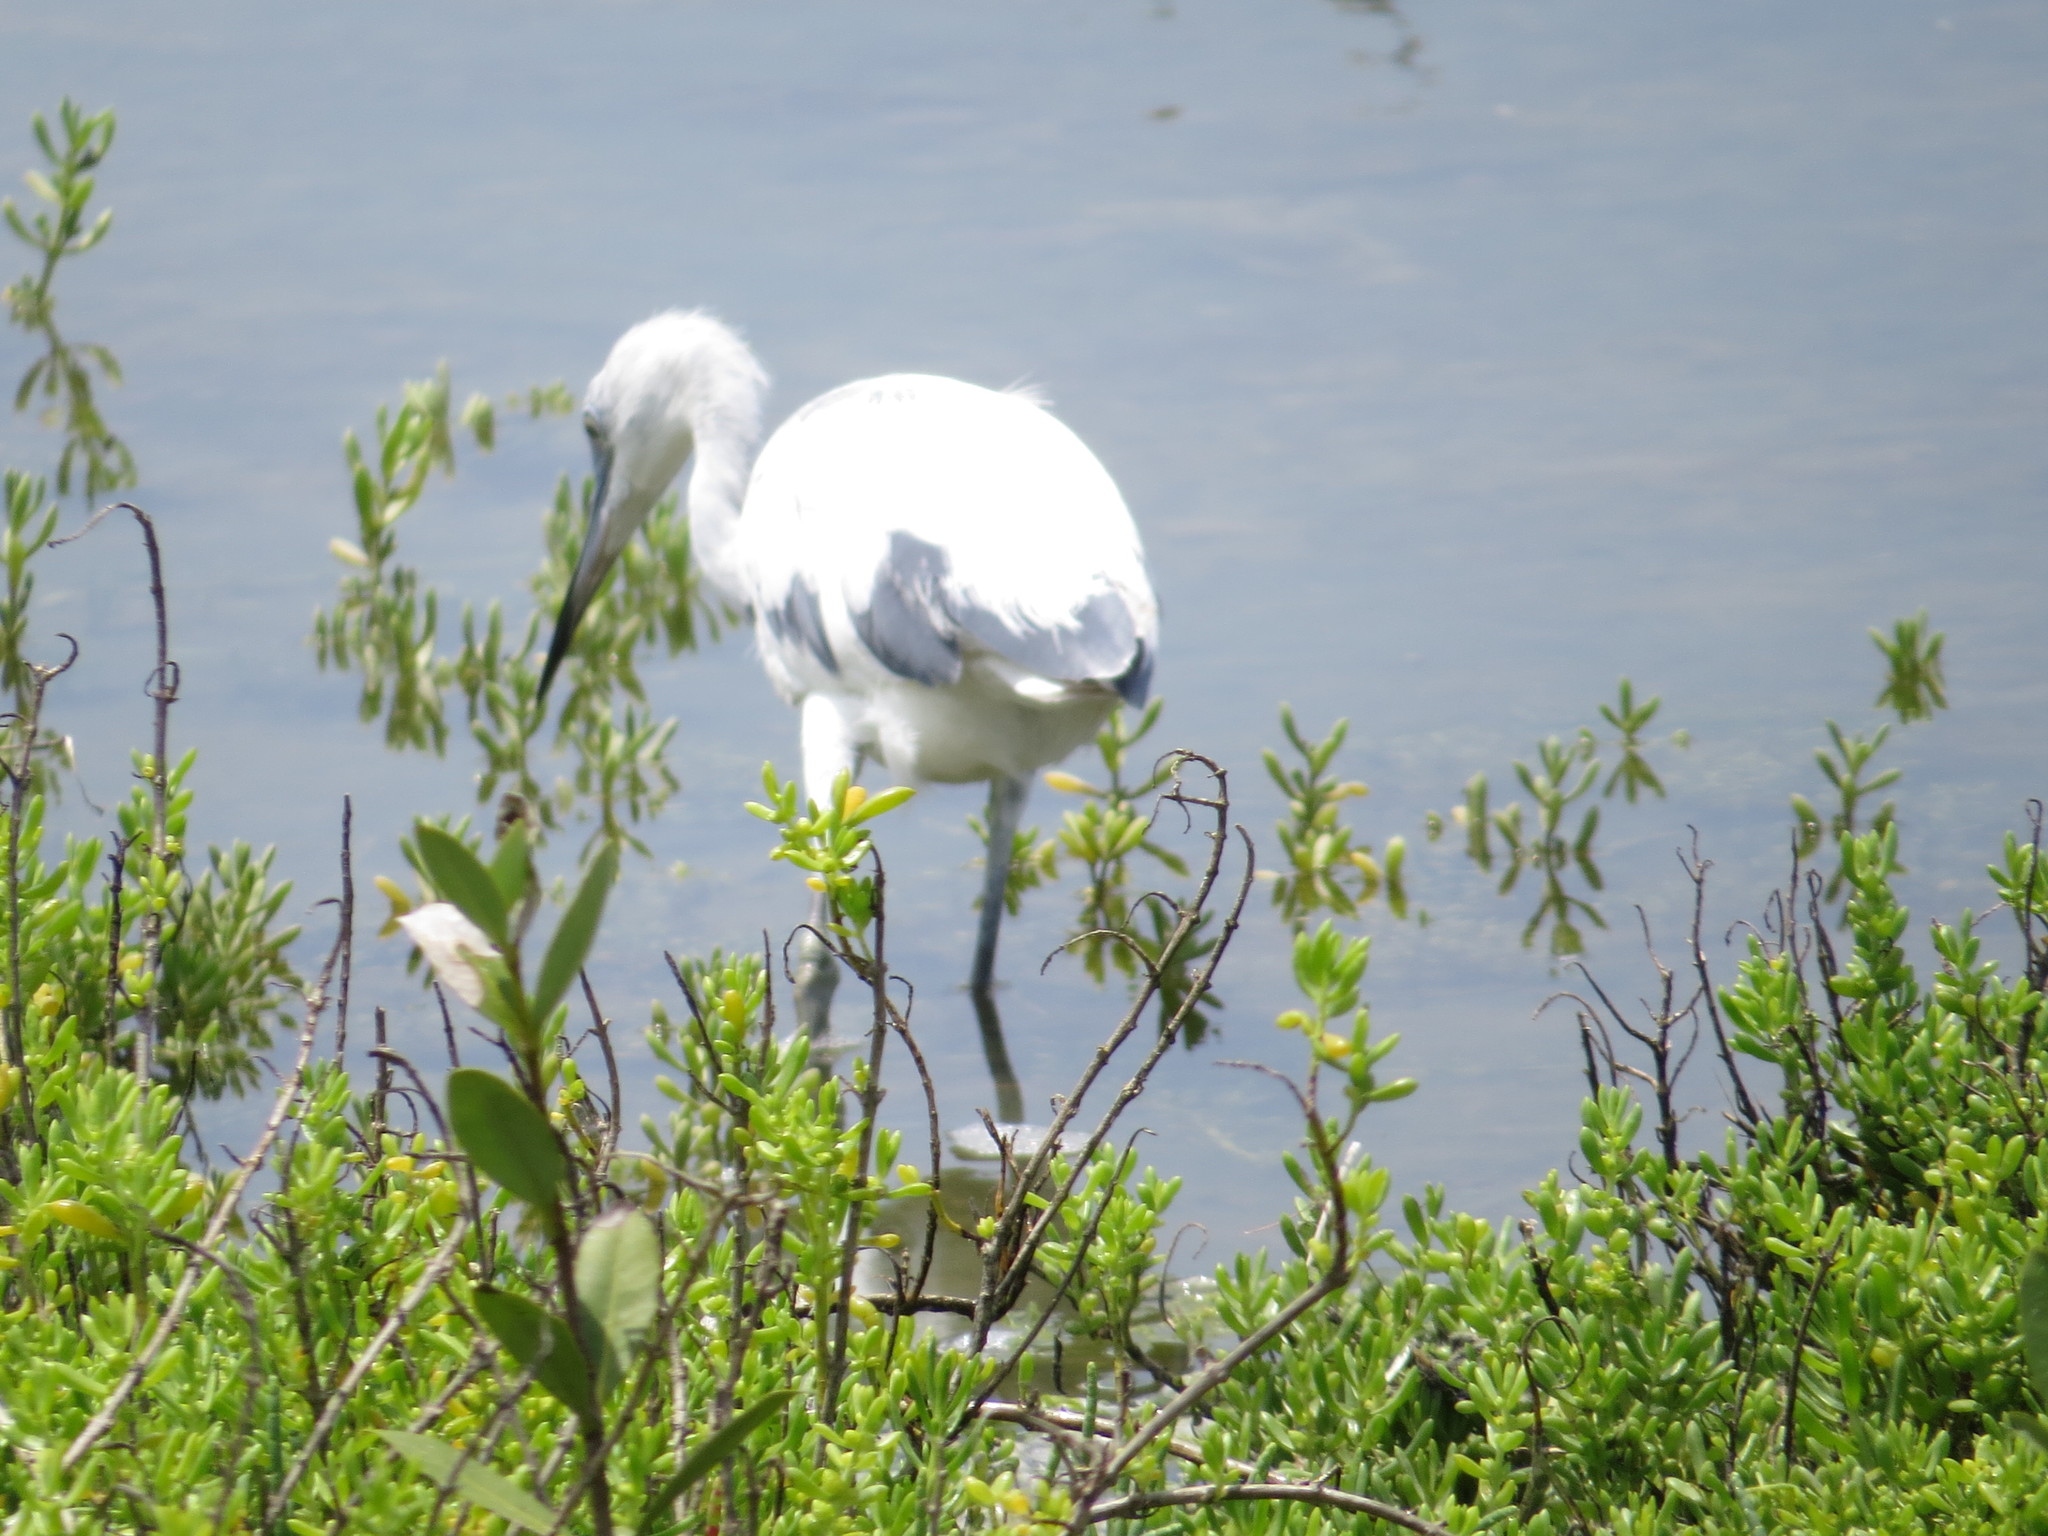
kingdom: Animalia
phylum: Chordata
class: Aves
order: Pelecaniformes
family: Ardeidae
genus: Egretta
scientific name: Egretta caerulea
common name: Little blue heron
